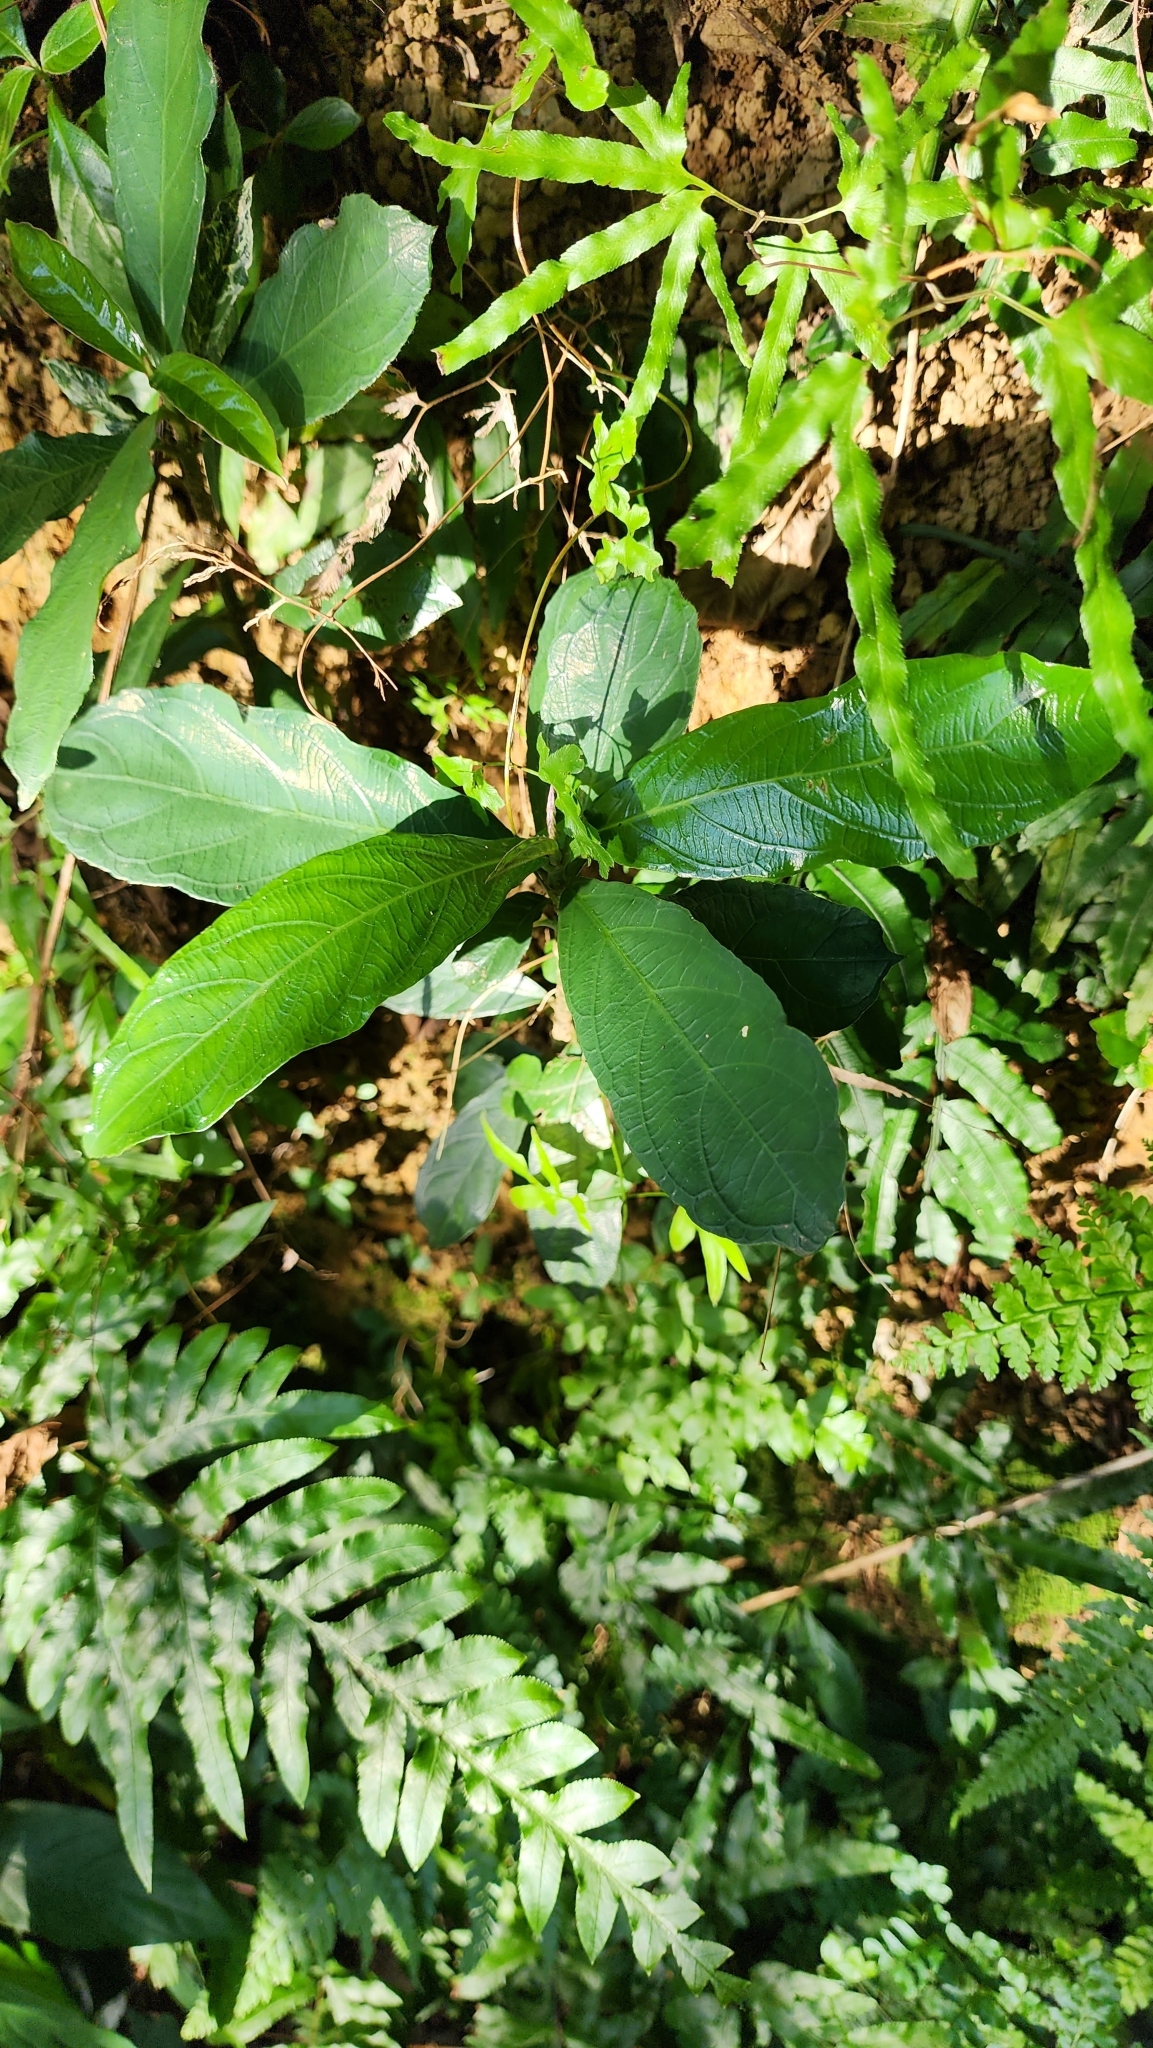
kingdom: Plantae
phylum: Tracheophyta
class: Magnoliopsida
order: Gentianales
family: Rubiaceae
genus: Lasianthus
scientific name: Lasianthus verticillatus
